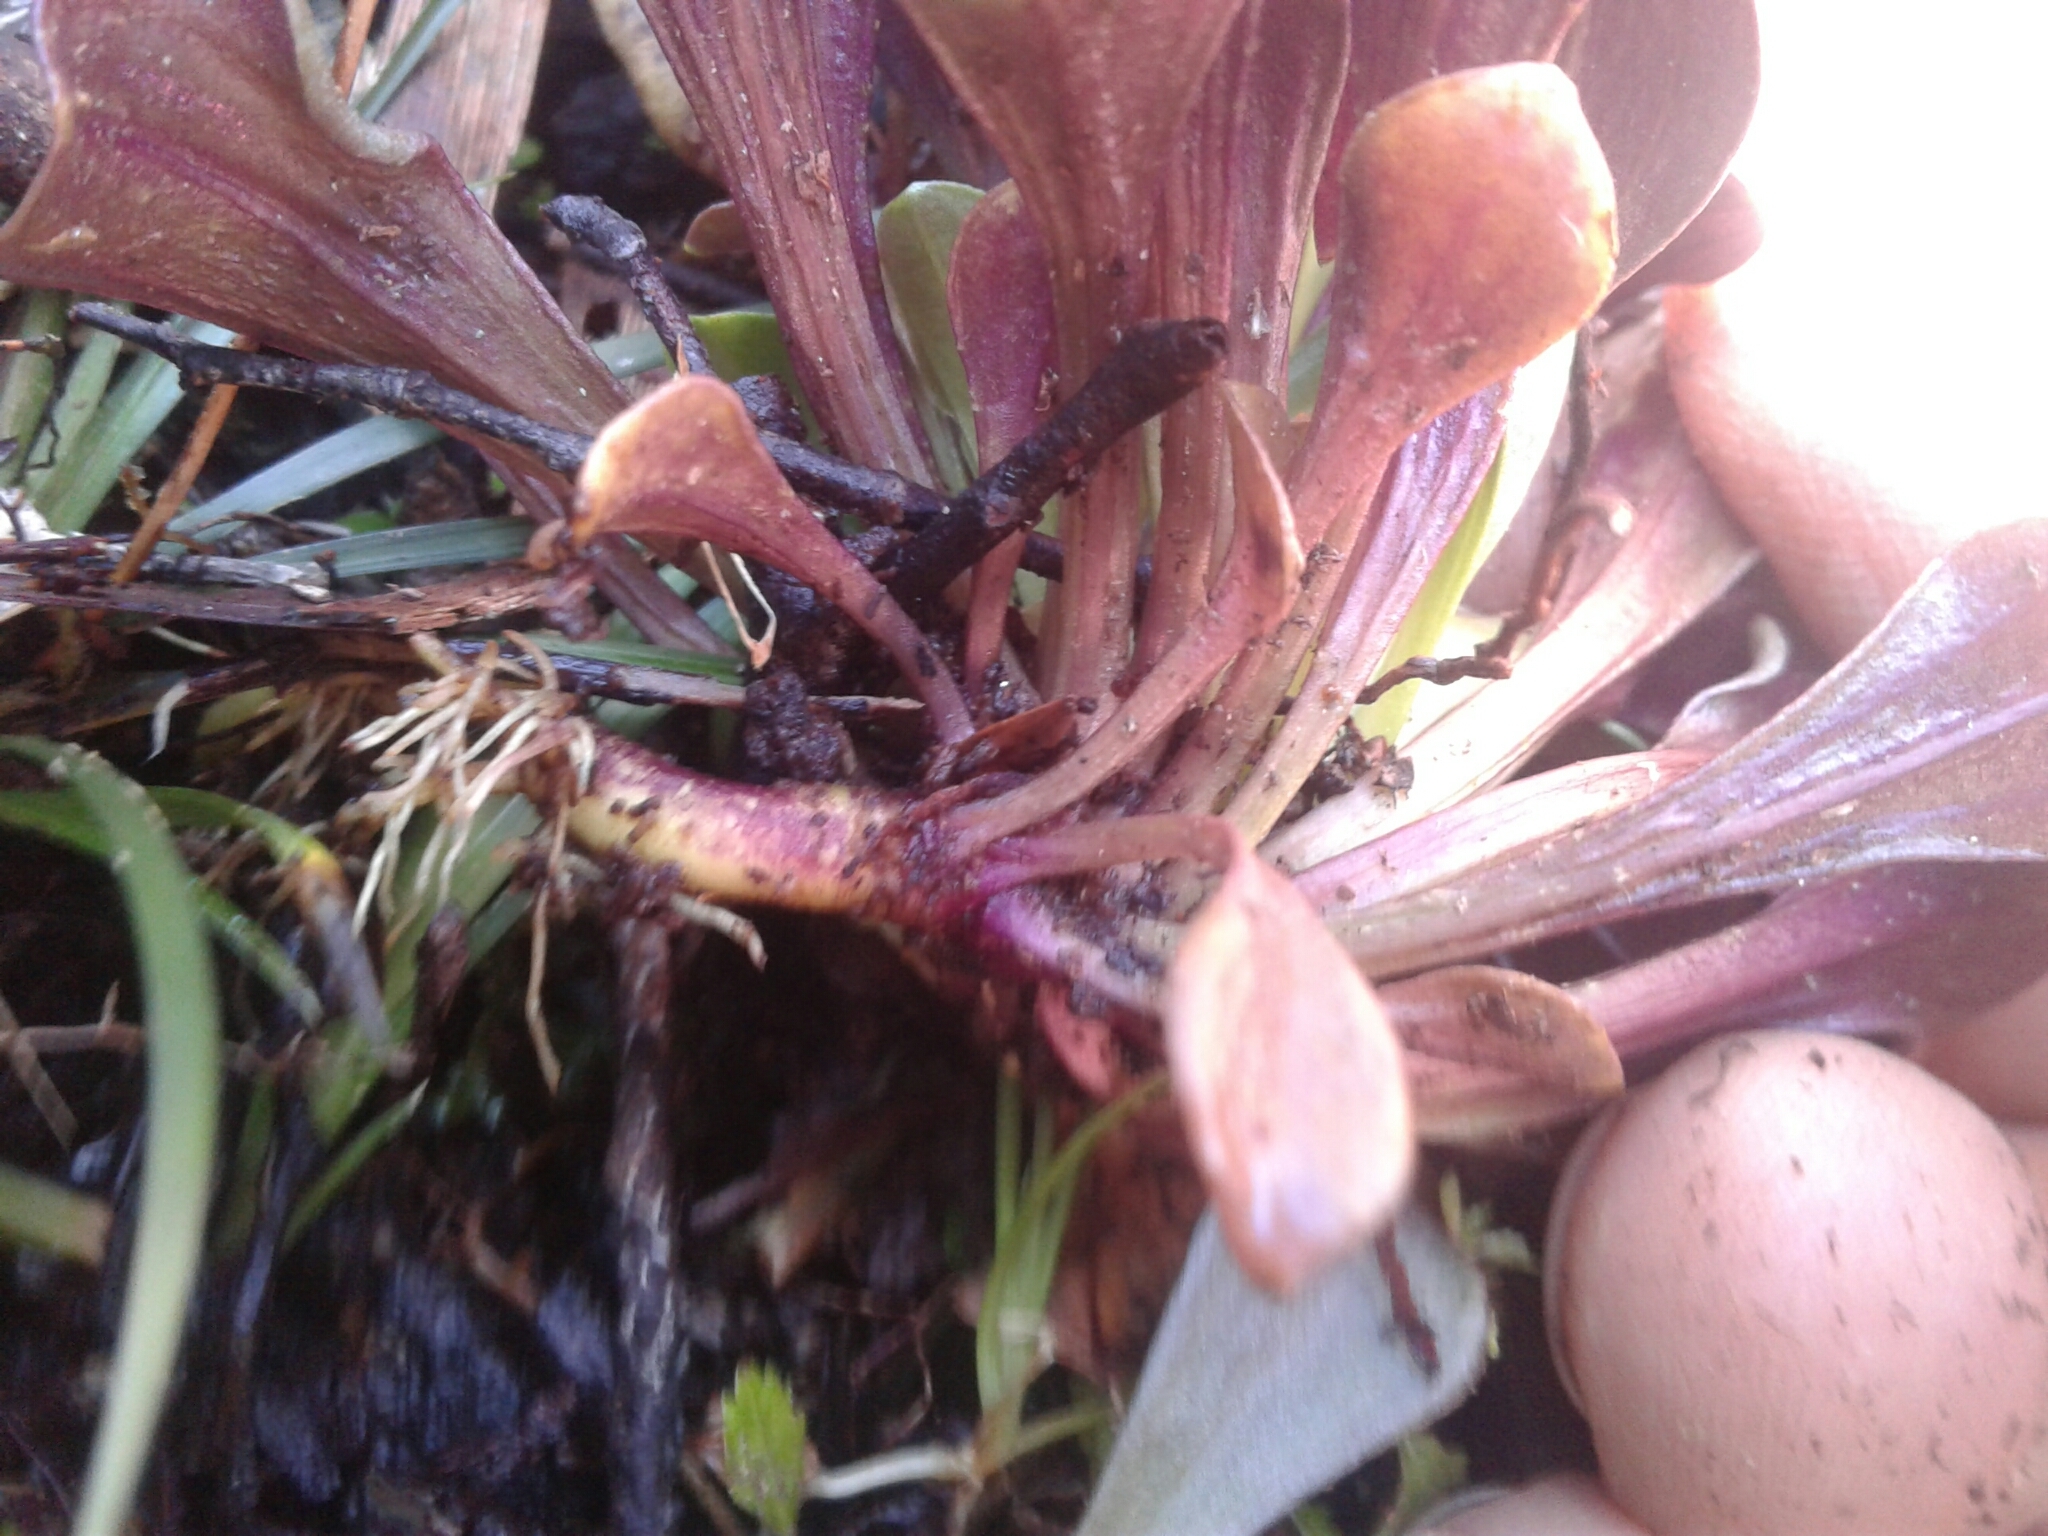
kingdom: Plantae
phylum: Tracheophyta
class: Magnoliopsida
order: Gentianales
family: Gentianaceae
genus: Gentianella
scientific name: Gentianella spenceri
